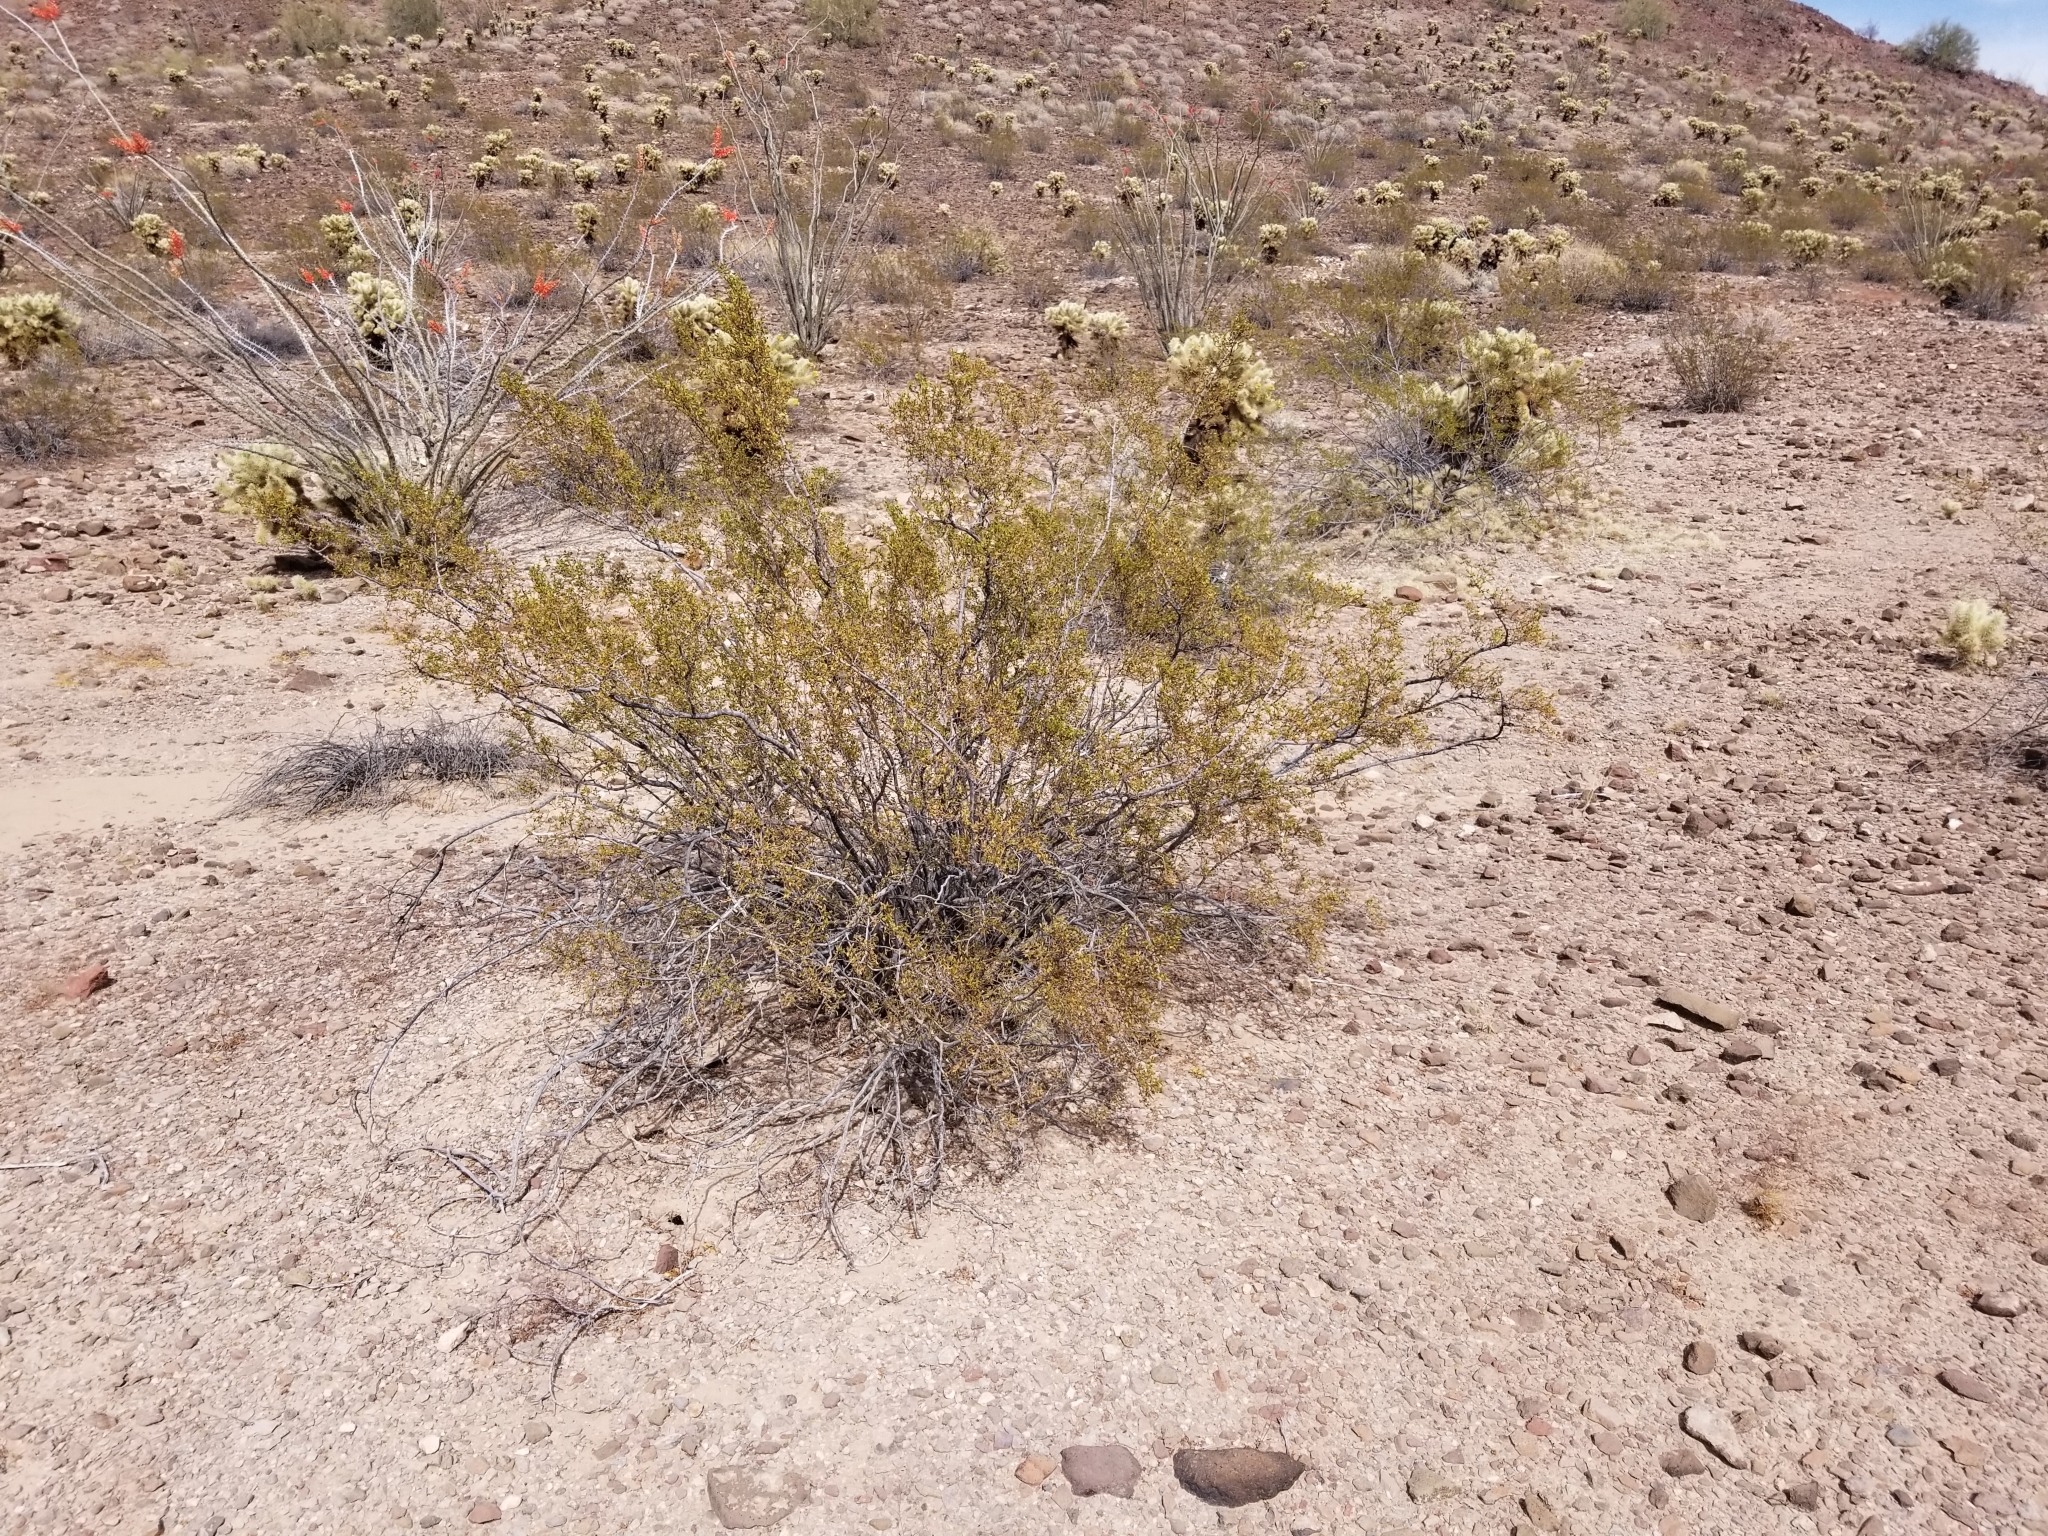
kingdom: Plantae
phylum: Tracheophyta
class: Magnoliopsida
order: Zygophyllales
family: Zygophyllaceae
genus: Larrea
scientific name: Larrea tridentata
